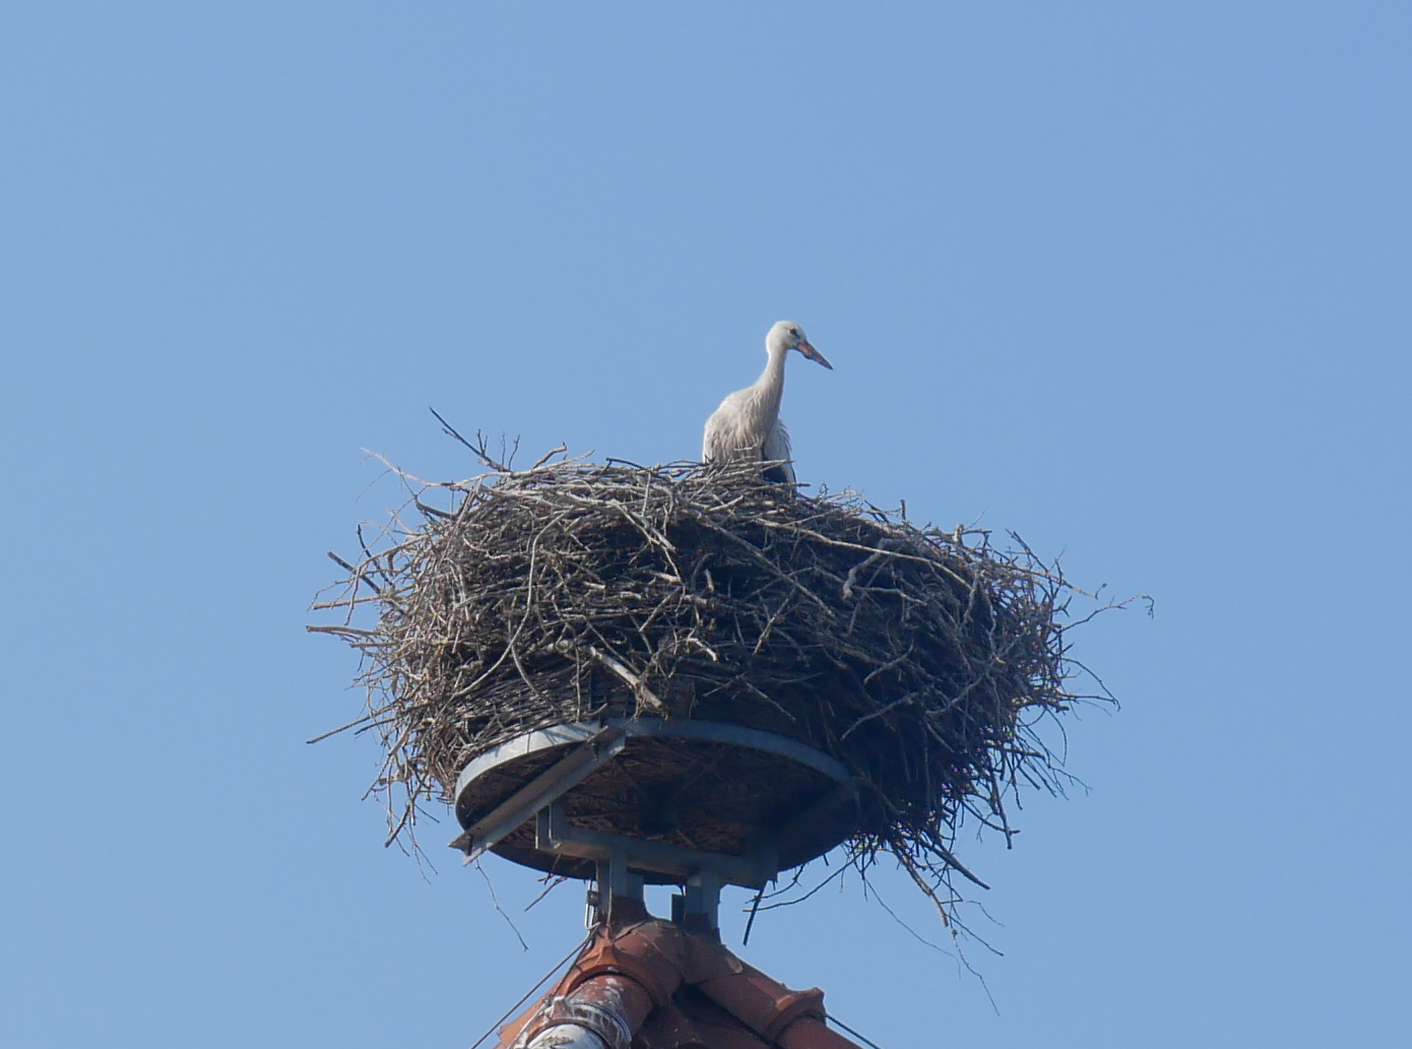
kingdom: Animalia
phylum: Chordata
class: Aves
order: Ciconiiformes
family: Ciconiidae
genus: Ciconia
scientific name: Ciconia ciconia
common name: White stork
